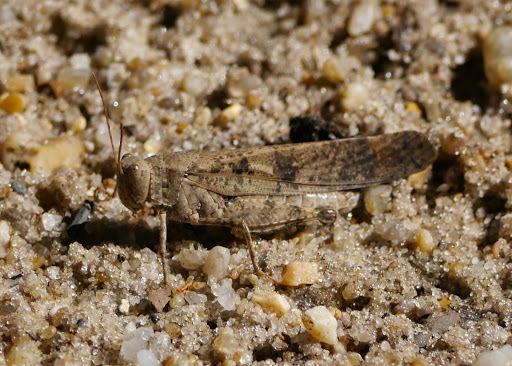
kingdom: Animalia
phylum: Arthropoda
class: Insecta
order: Orthoptera
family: Acrididae
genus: Dissosteira
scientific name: Dissosteira carolina
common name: Carolina grasshopper
